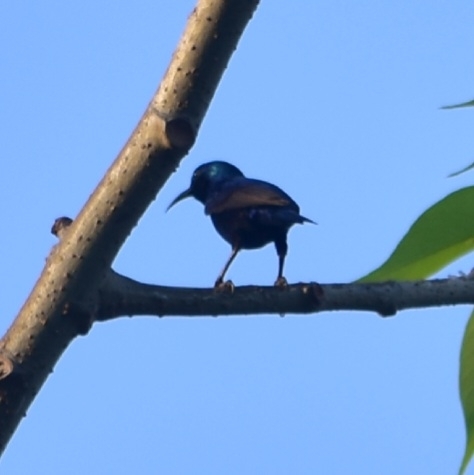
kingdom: Animalia
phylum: Chordata
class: Aves
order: Passeriformes
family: Nectariniidae
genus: Cinnyris
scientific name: Cinnyris asiaticus
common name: Purple sunbird
